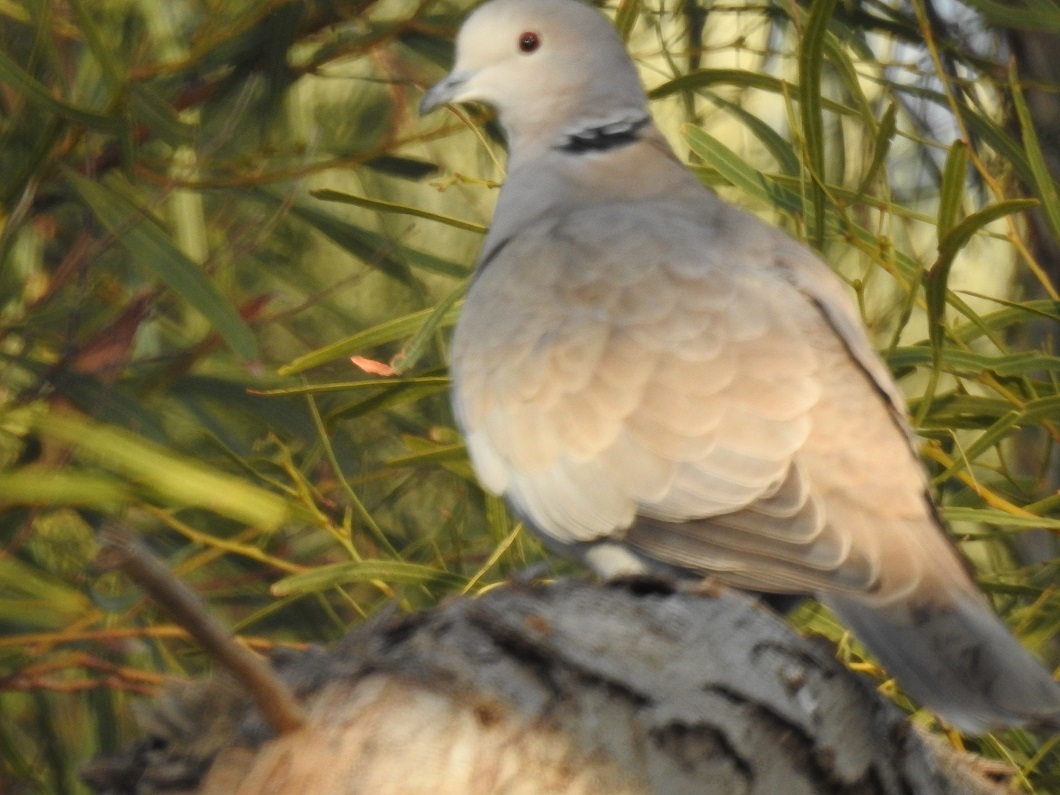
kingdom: Animalia
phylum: Chordata
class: Aves
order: Columbiformes
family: Columbidae
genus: Streptopelia
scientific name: Streptopelia decaocto
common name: Eurasian collared dove
